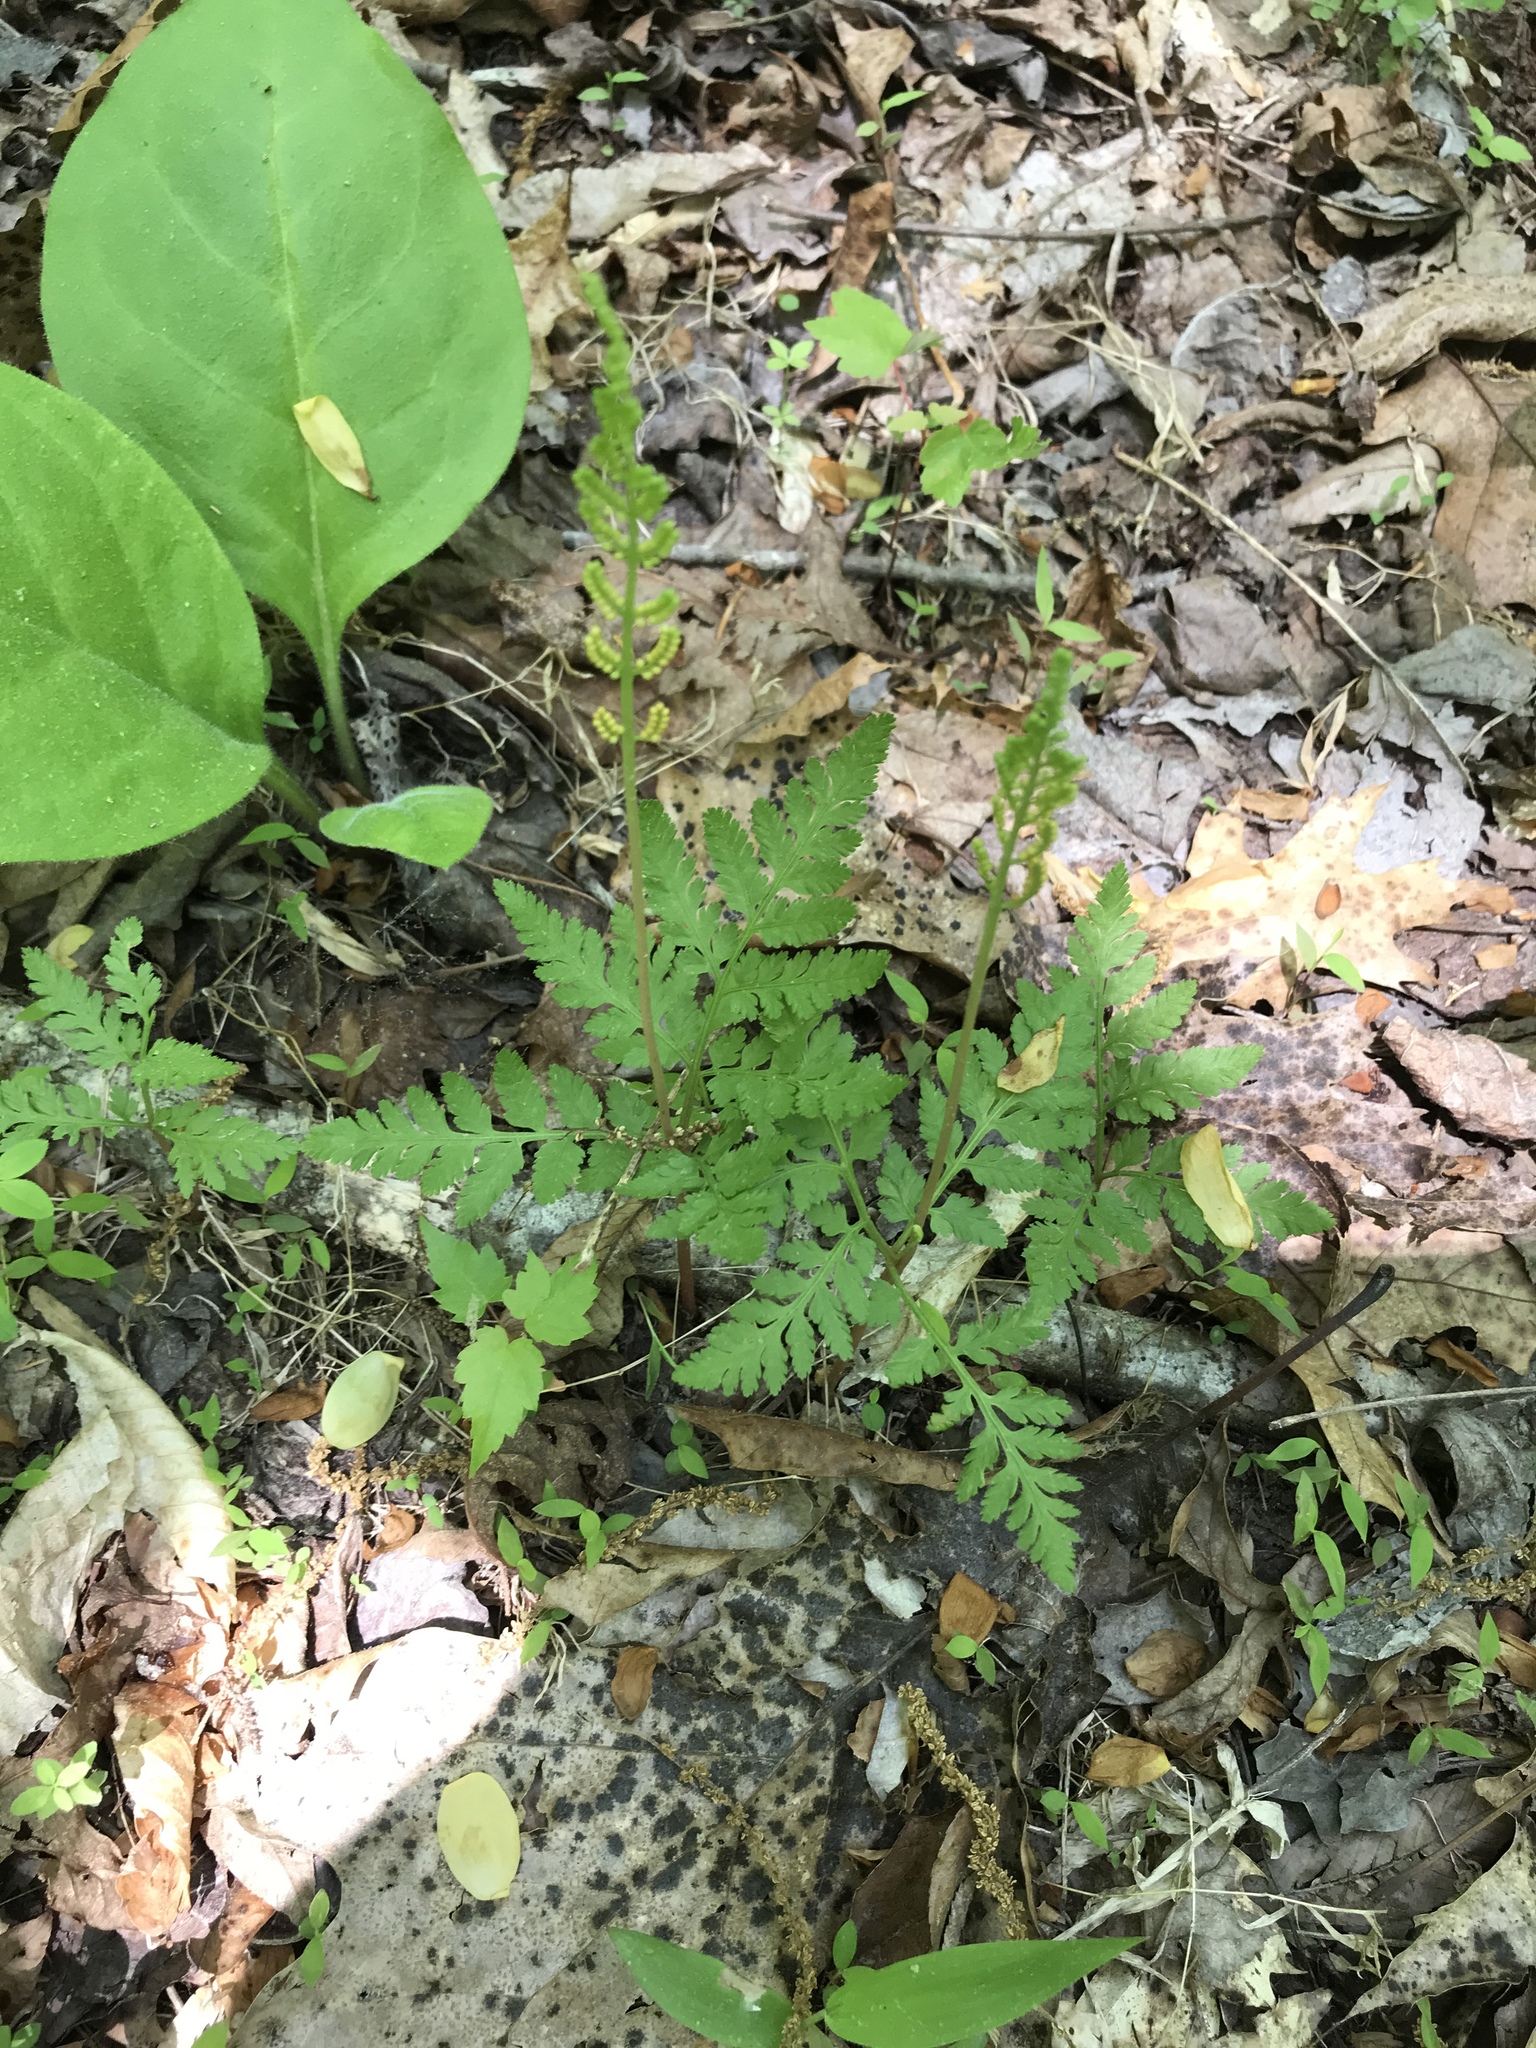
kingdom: Plantae
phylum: Tracheophyta
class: Polypodiopsida
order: Ophioglossales
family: Ophioglossaceae
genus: Botrypus
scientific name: Botrypus virginianus
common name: Common grapefern
